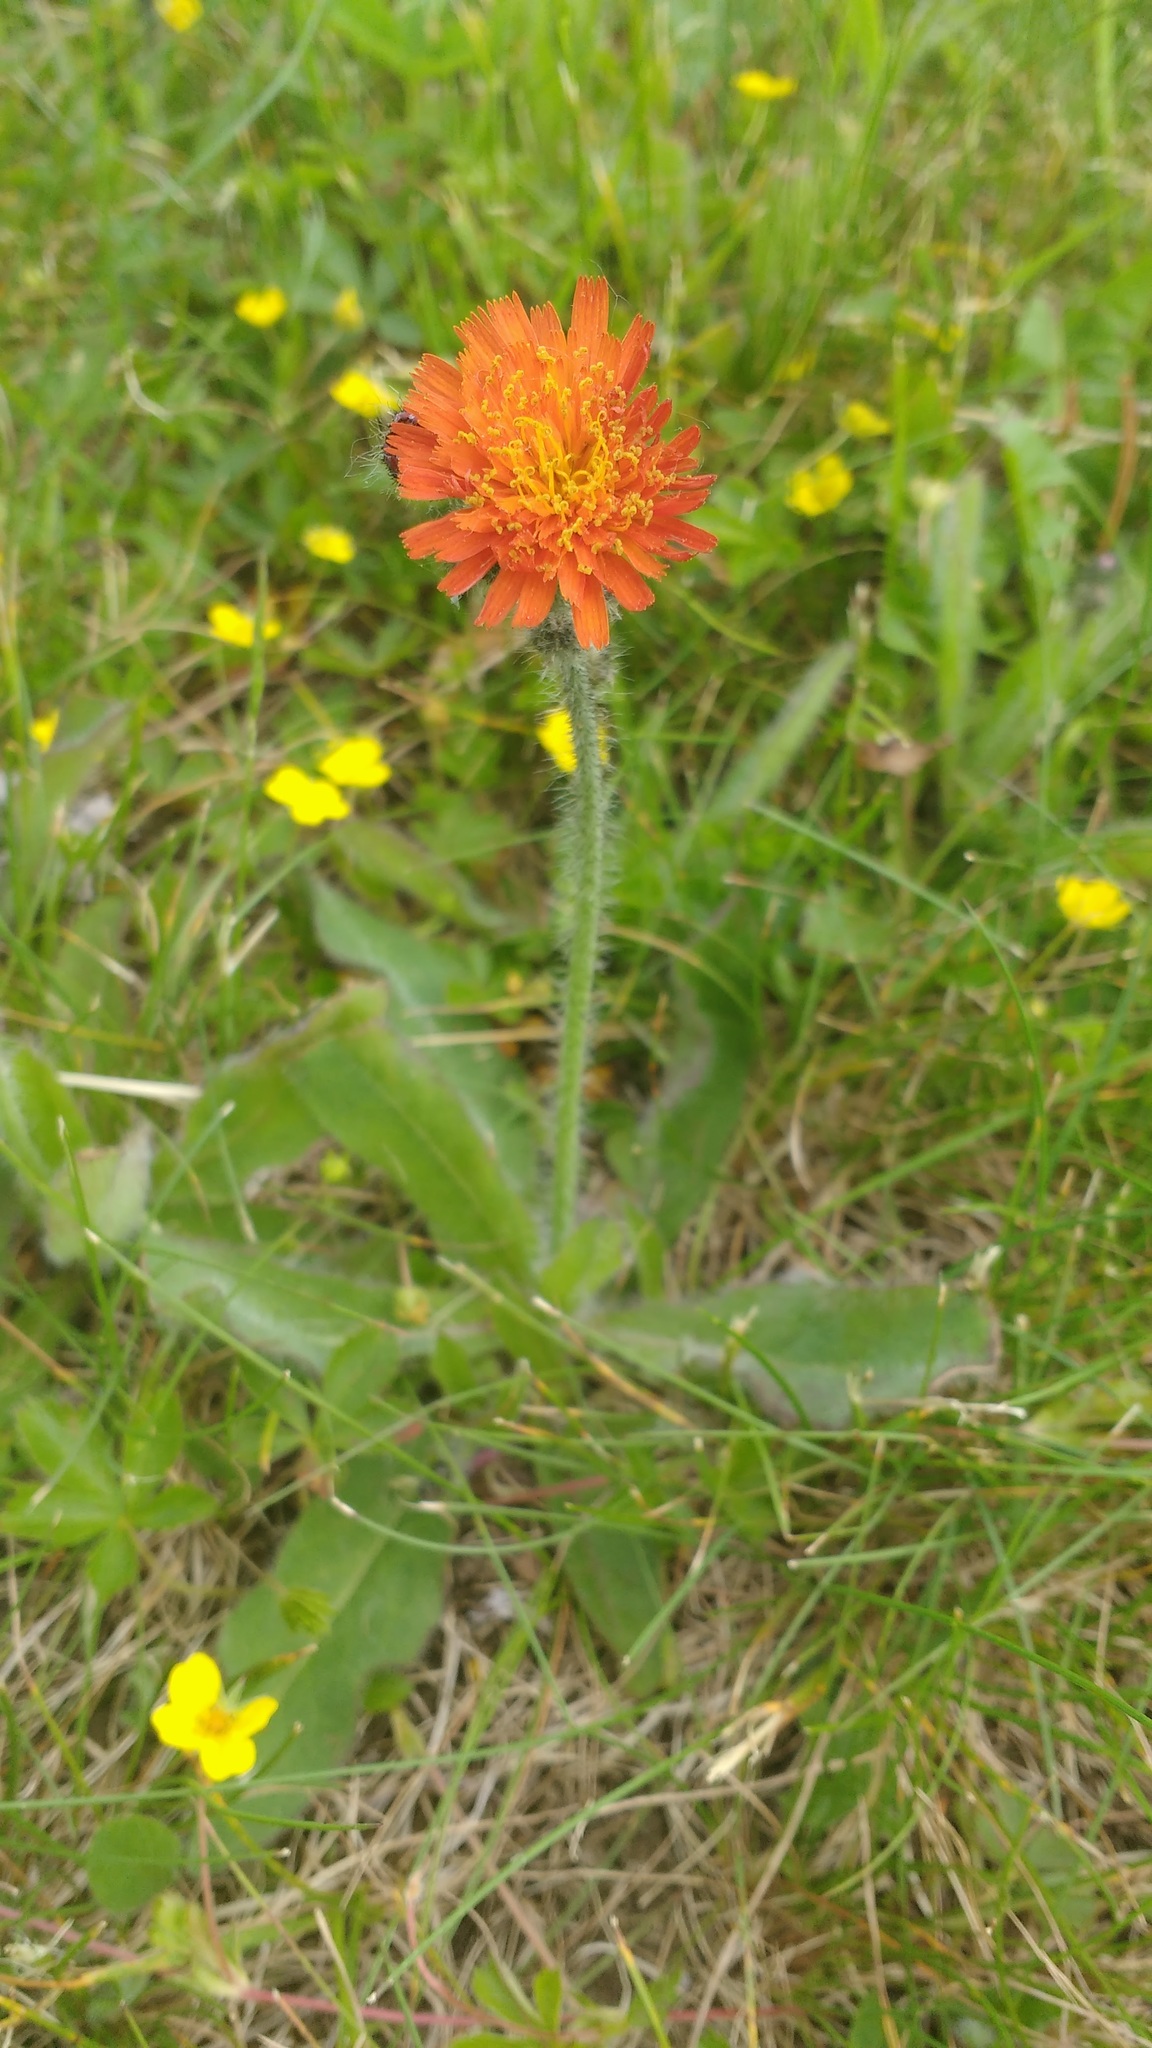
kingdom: Plantae
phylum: Tracheophyta
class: Magnoliopsida
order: Asterales
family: Asteraceae
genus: Pilosella
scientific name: Pilosella aurantiaca
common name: Fox-and-cubs
